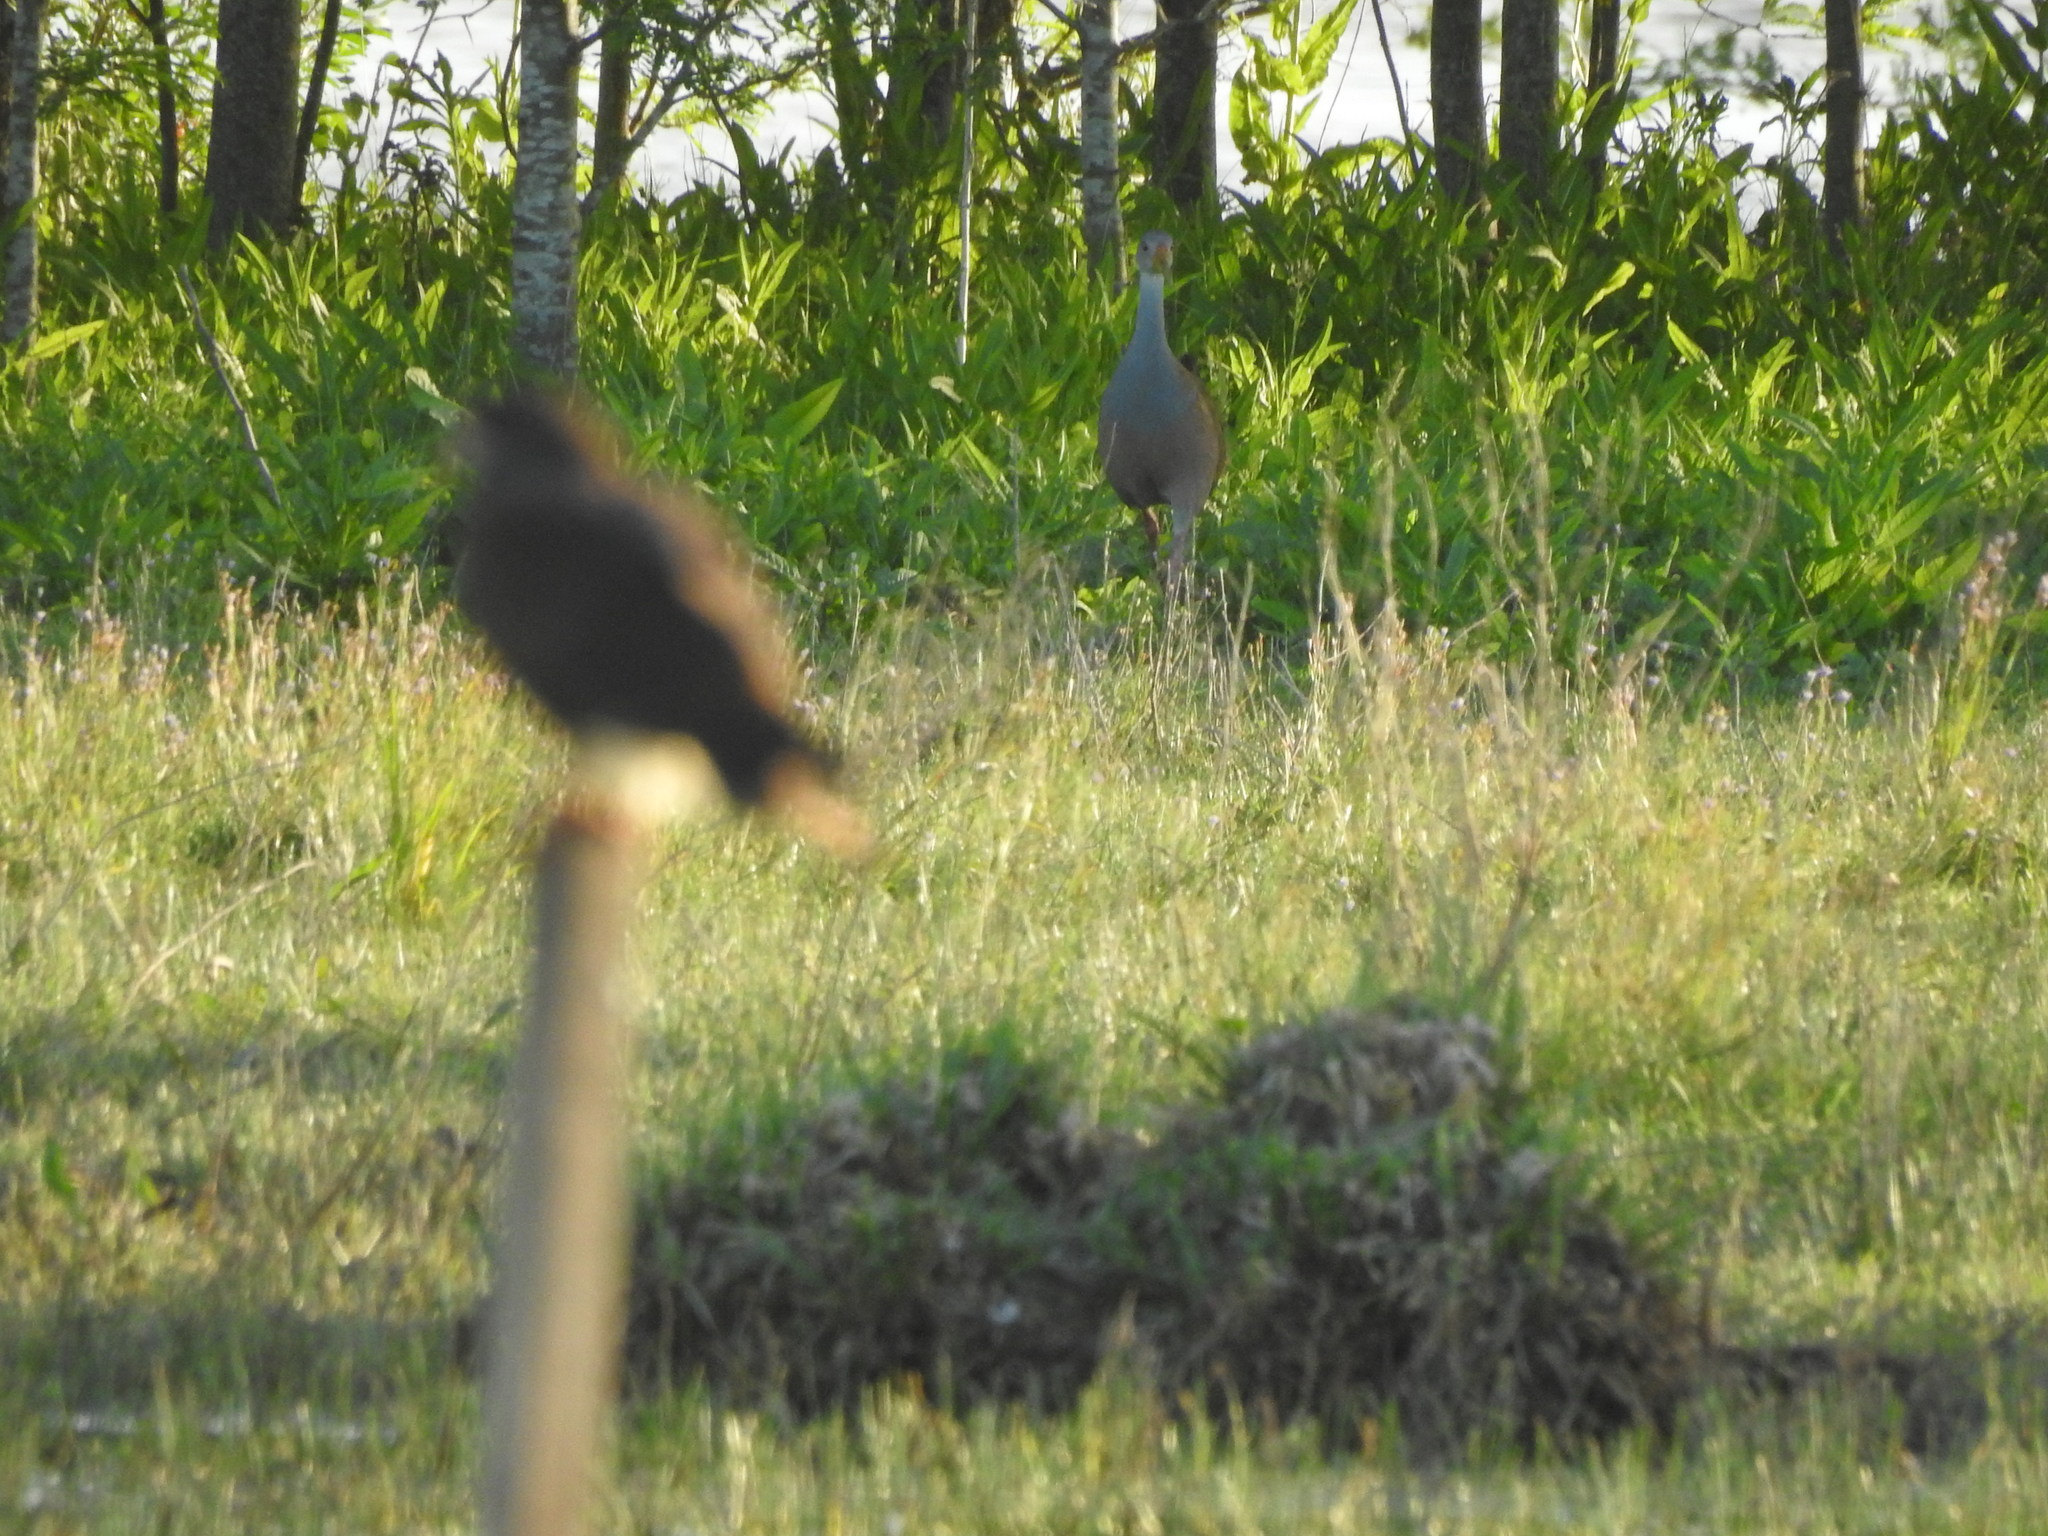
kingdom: Animalia
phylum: Chordata
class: Aves
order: Gruiformes
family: Rallidae
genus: Aramides
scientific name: Aramides ypecaha
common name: Giant wood rail
